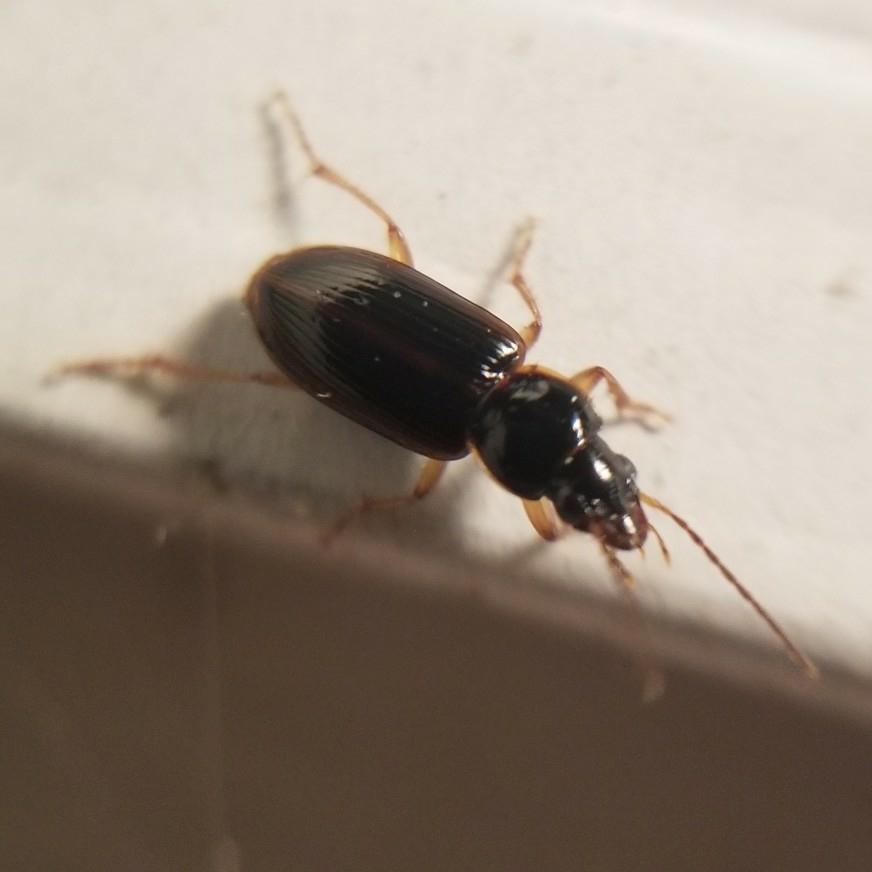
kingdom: Animalia
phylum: Arthropoda
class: Insecta
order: Coleoptera
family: Carabidae
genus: Stenolophus
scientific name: Stenolophus ochropezus
